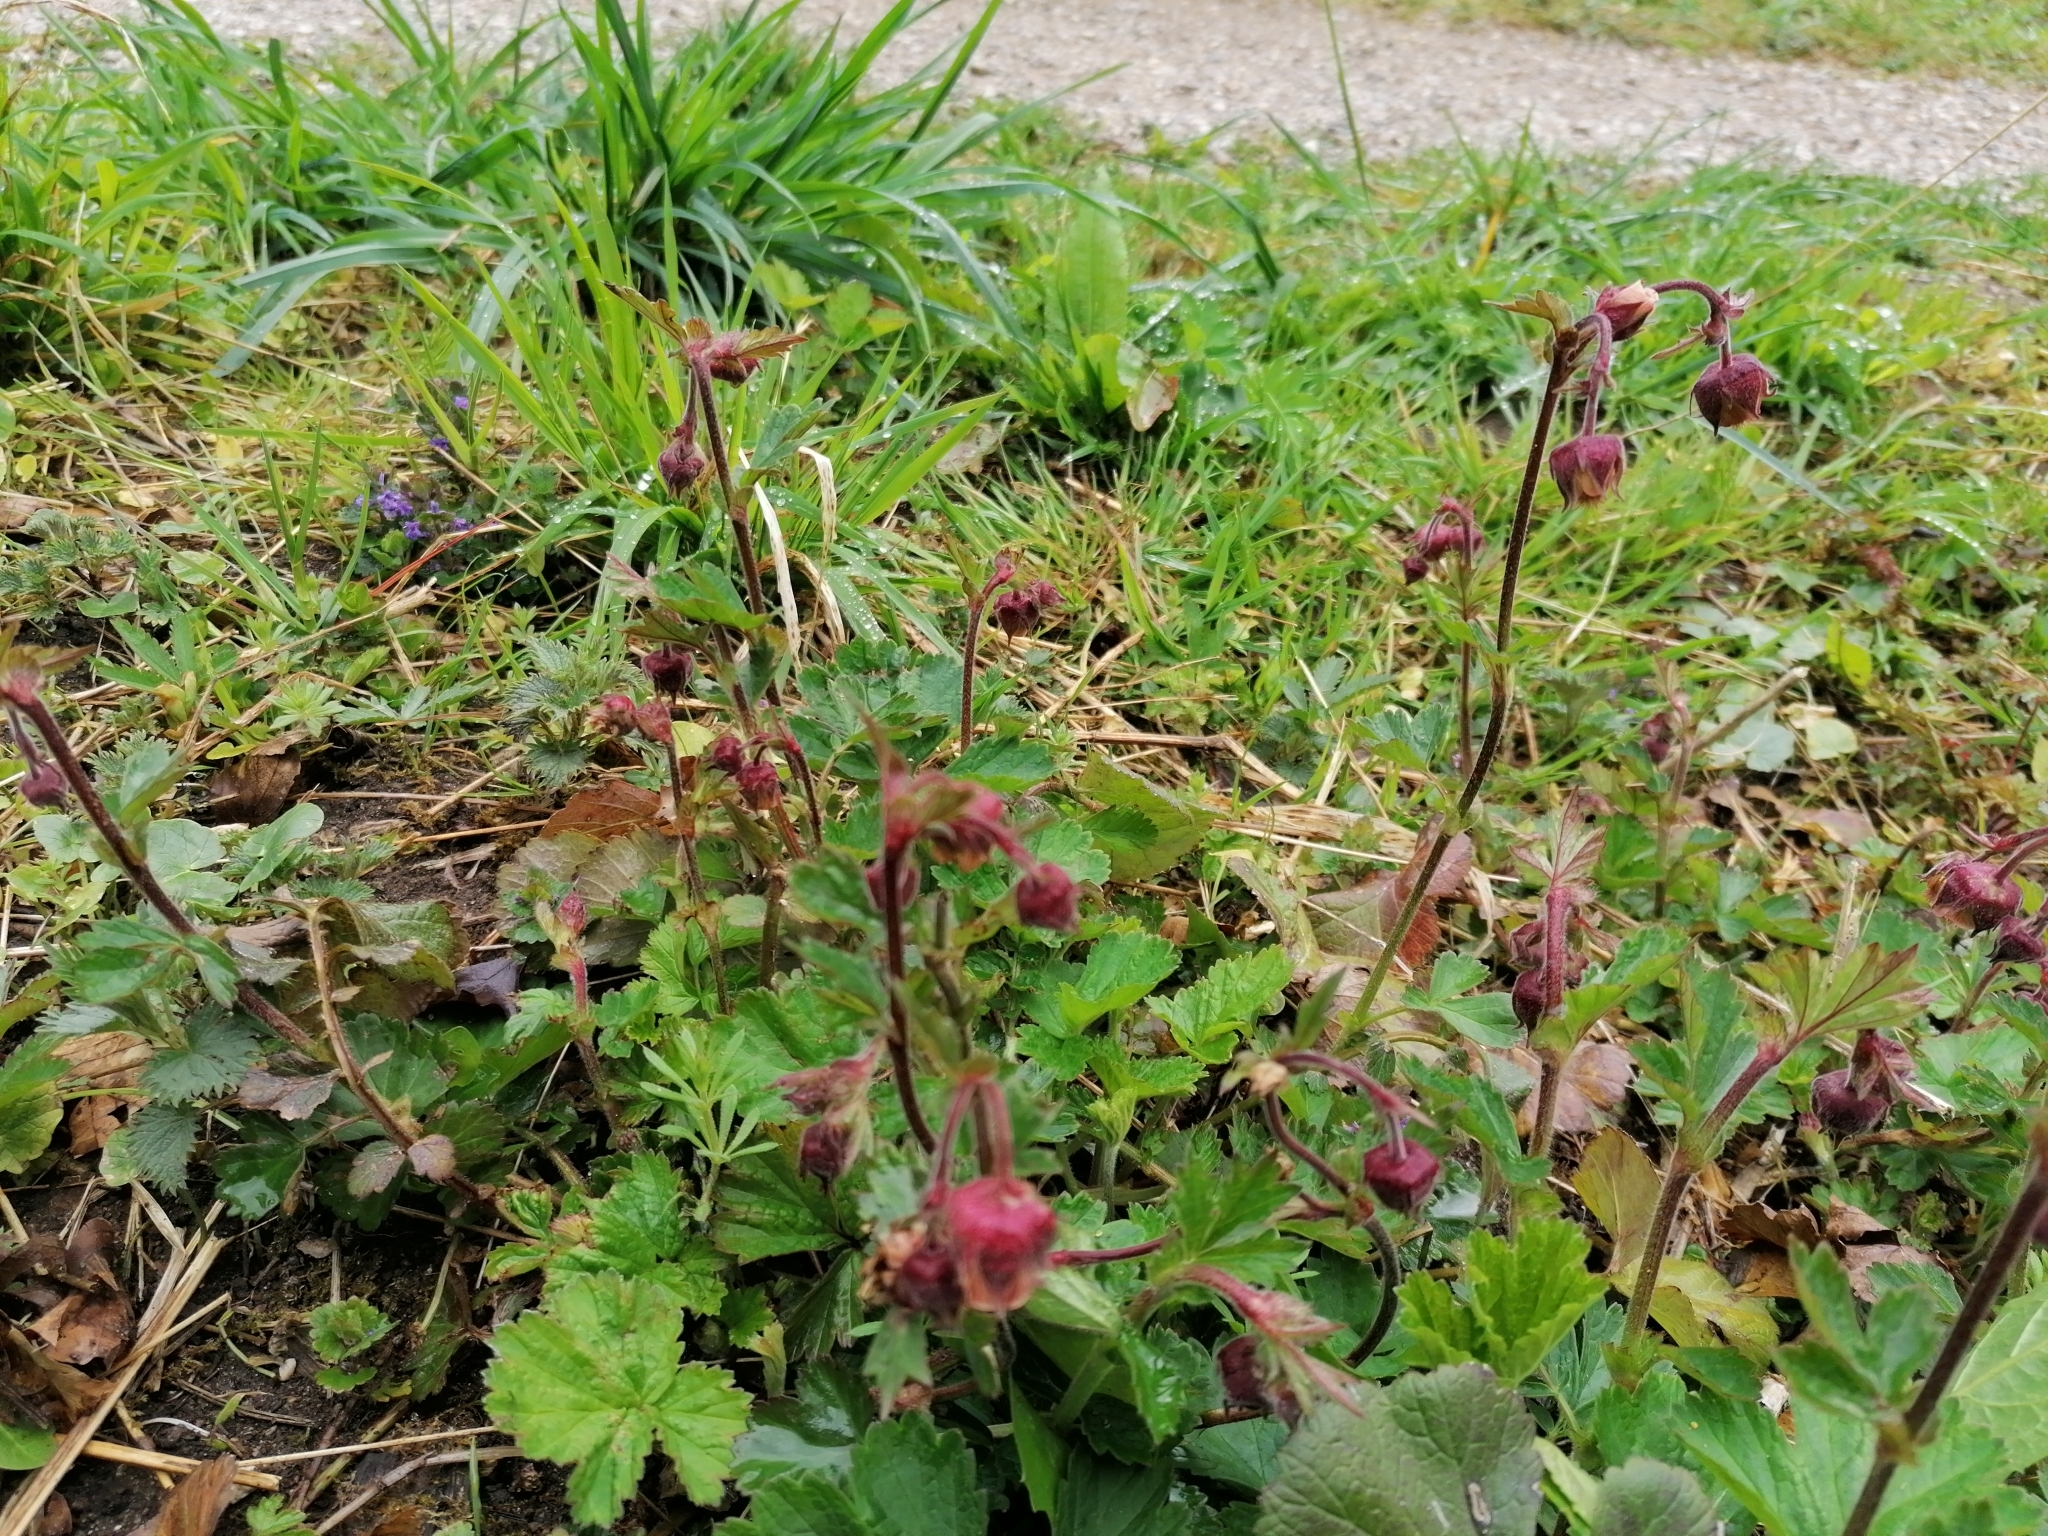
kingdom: Plantae
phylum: Tracheophyta
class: Magnoliopsida
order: Rosales
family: Rosaceae
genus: Geum
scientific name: Geum rivale
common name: Water avens
